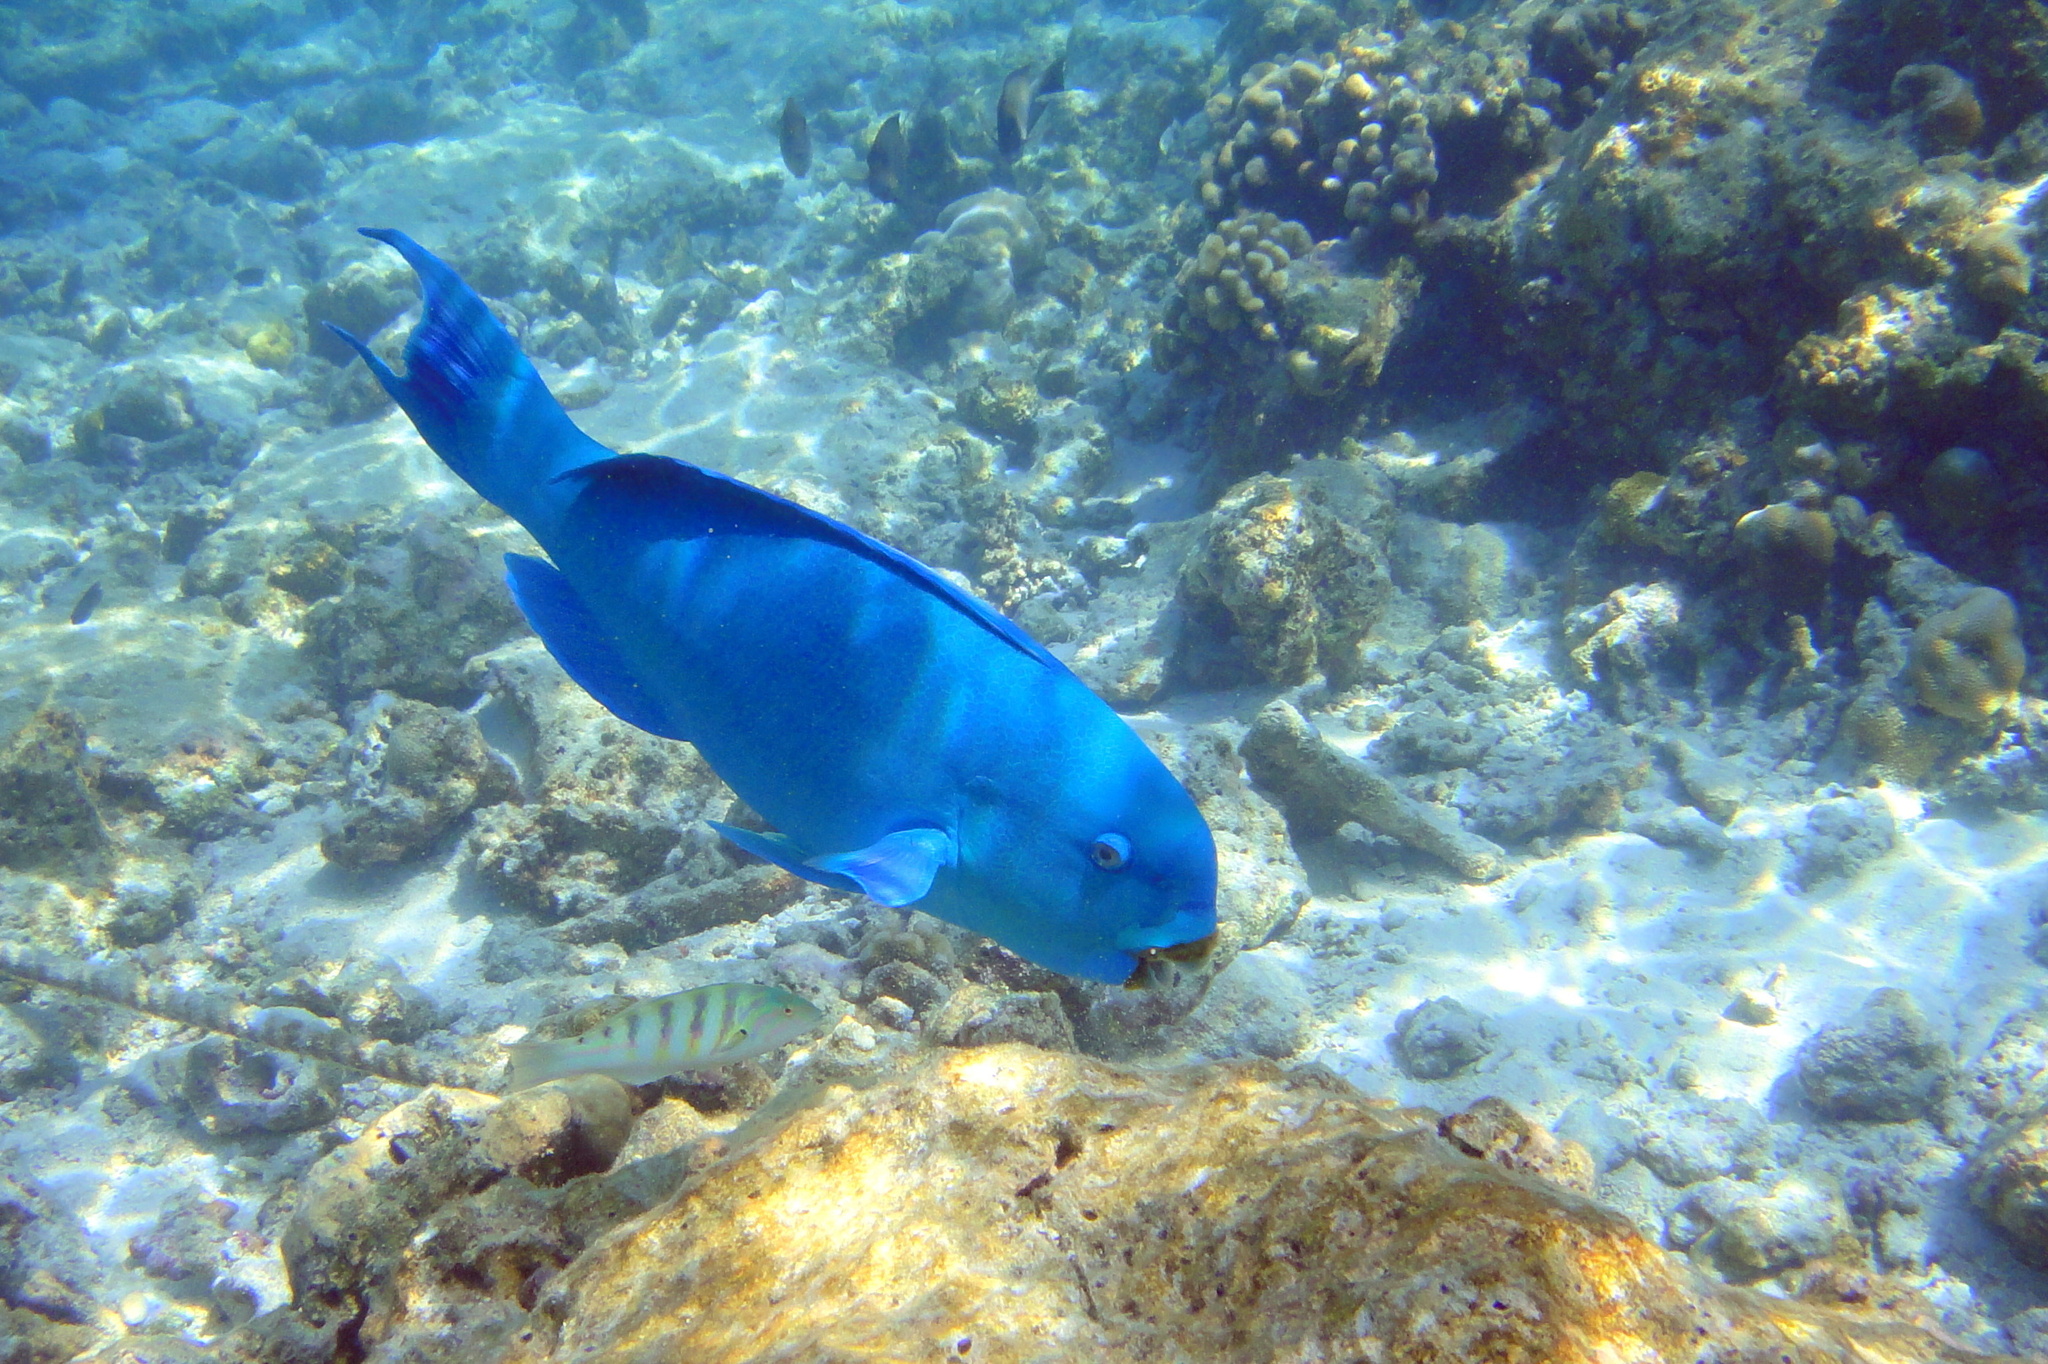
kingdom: Animalia
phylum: Chordata
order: Perciformes
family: Scaridae
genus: Chlorurus
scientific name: Chlorurus enneacanthus
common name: Captain parrotfish
